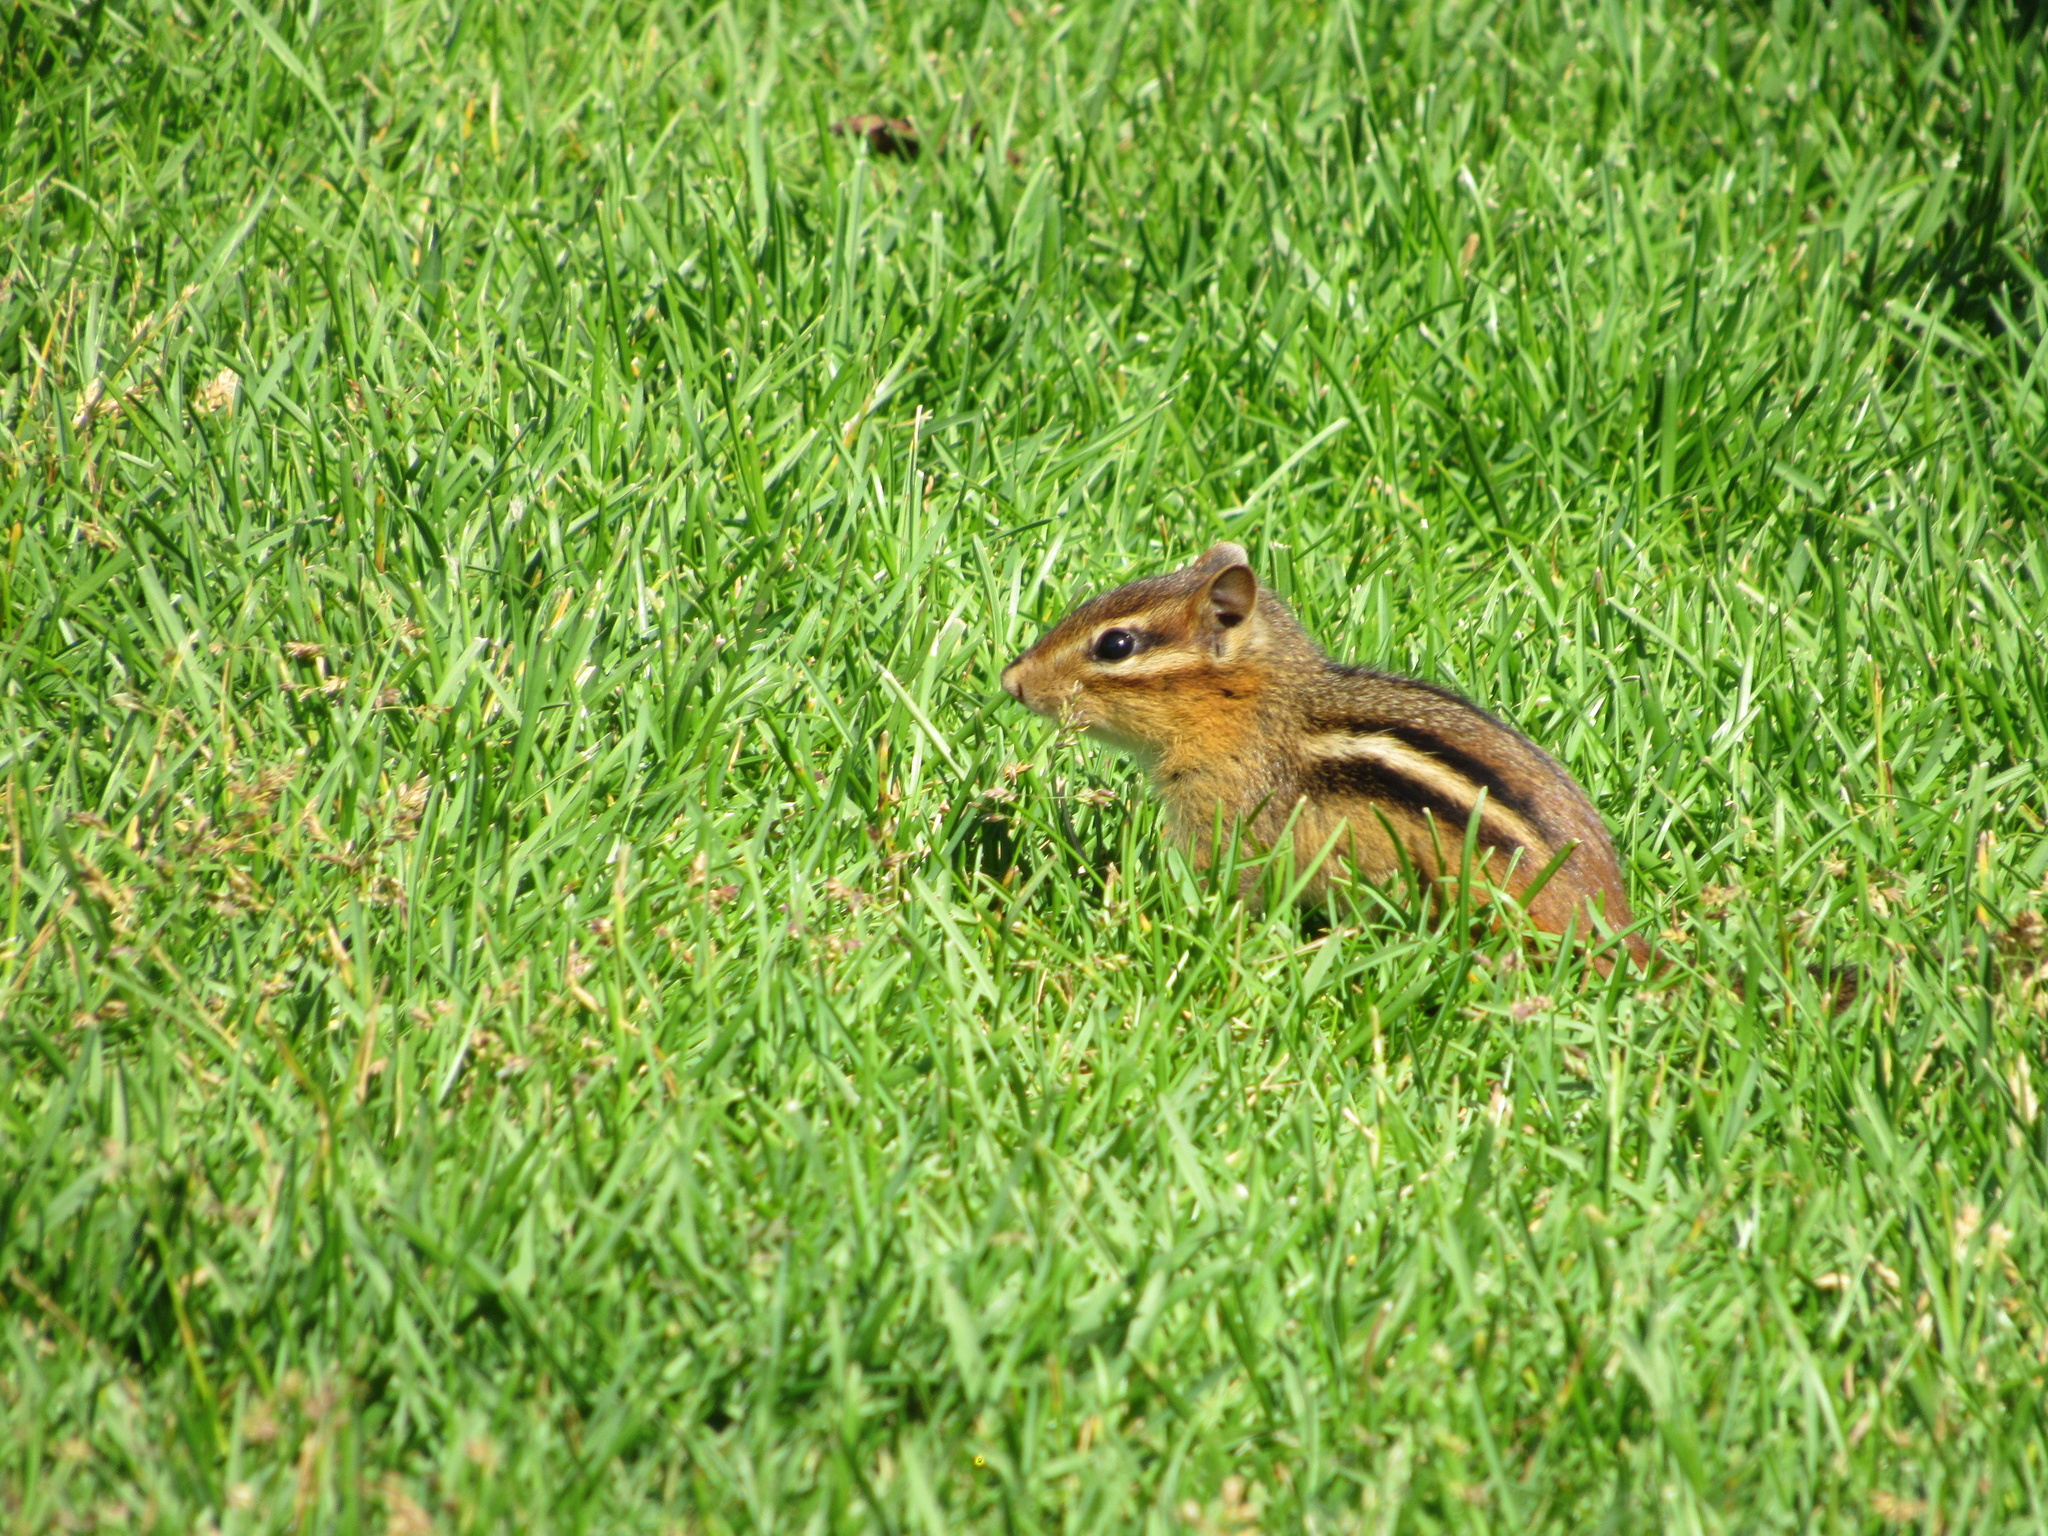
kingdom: Animalia
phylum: Chordata
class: Mammalia
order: Rodentia
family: Sciuridae
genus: Tamias
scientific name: Tamias striatus
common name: Eastern chipmunk
